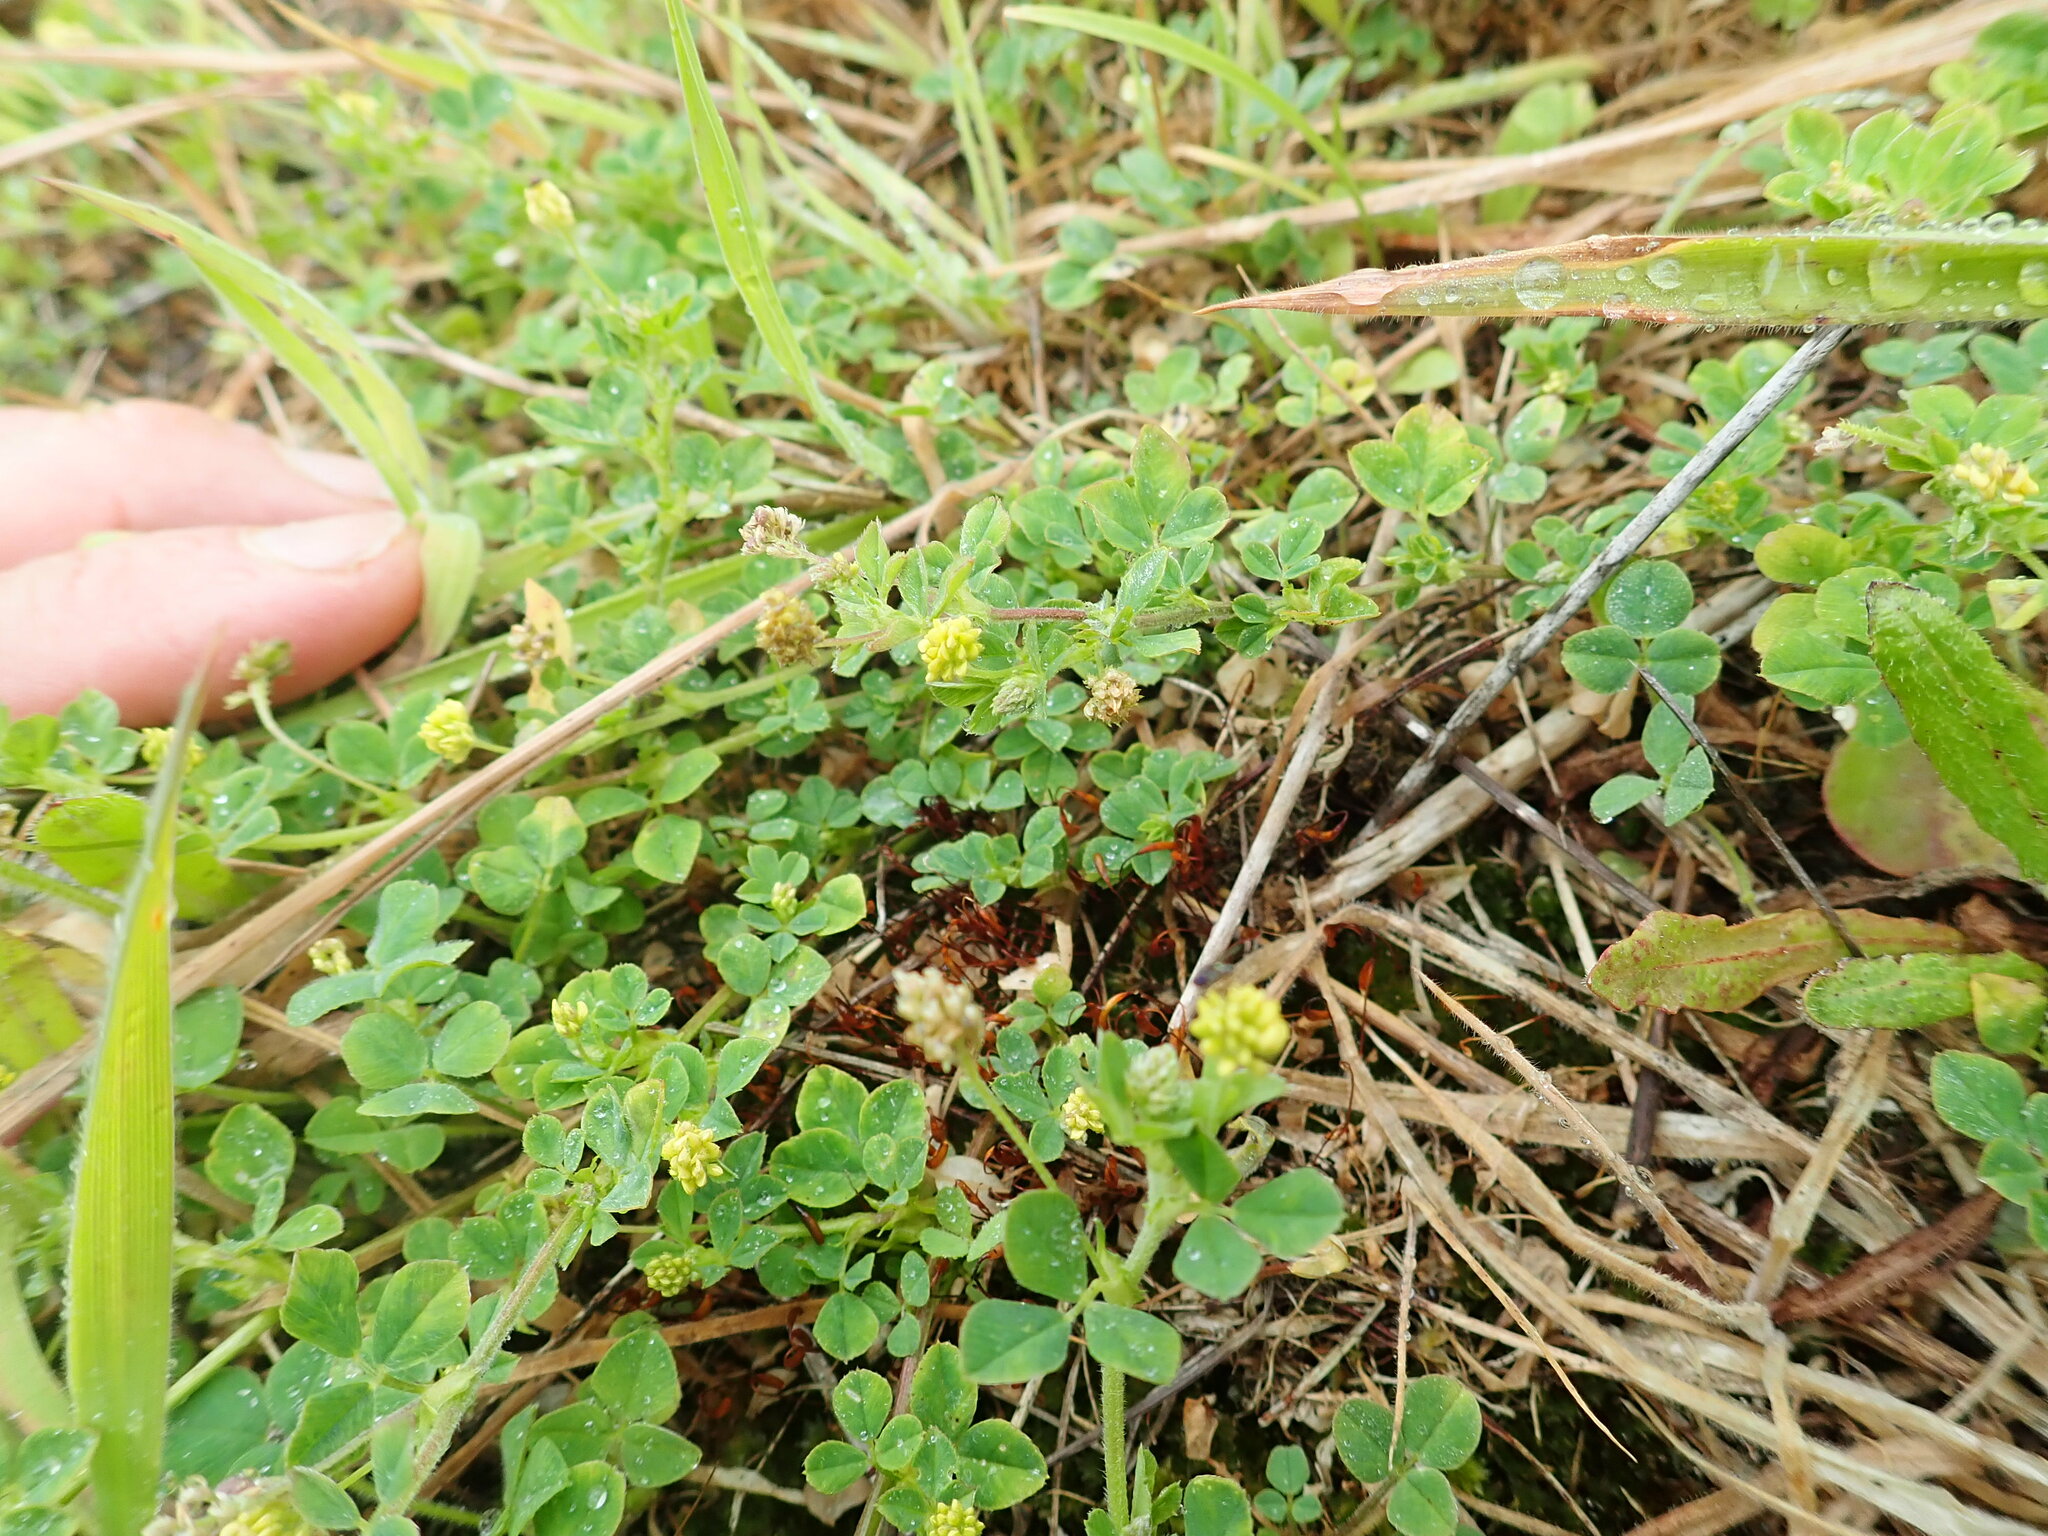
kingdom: Plantae
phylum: Tracheophyta
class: Magnoliopsida
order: Fabales
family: Fabaceae
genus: Medicago
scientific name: Medicago lupulina
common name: Black medick
